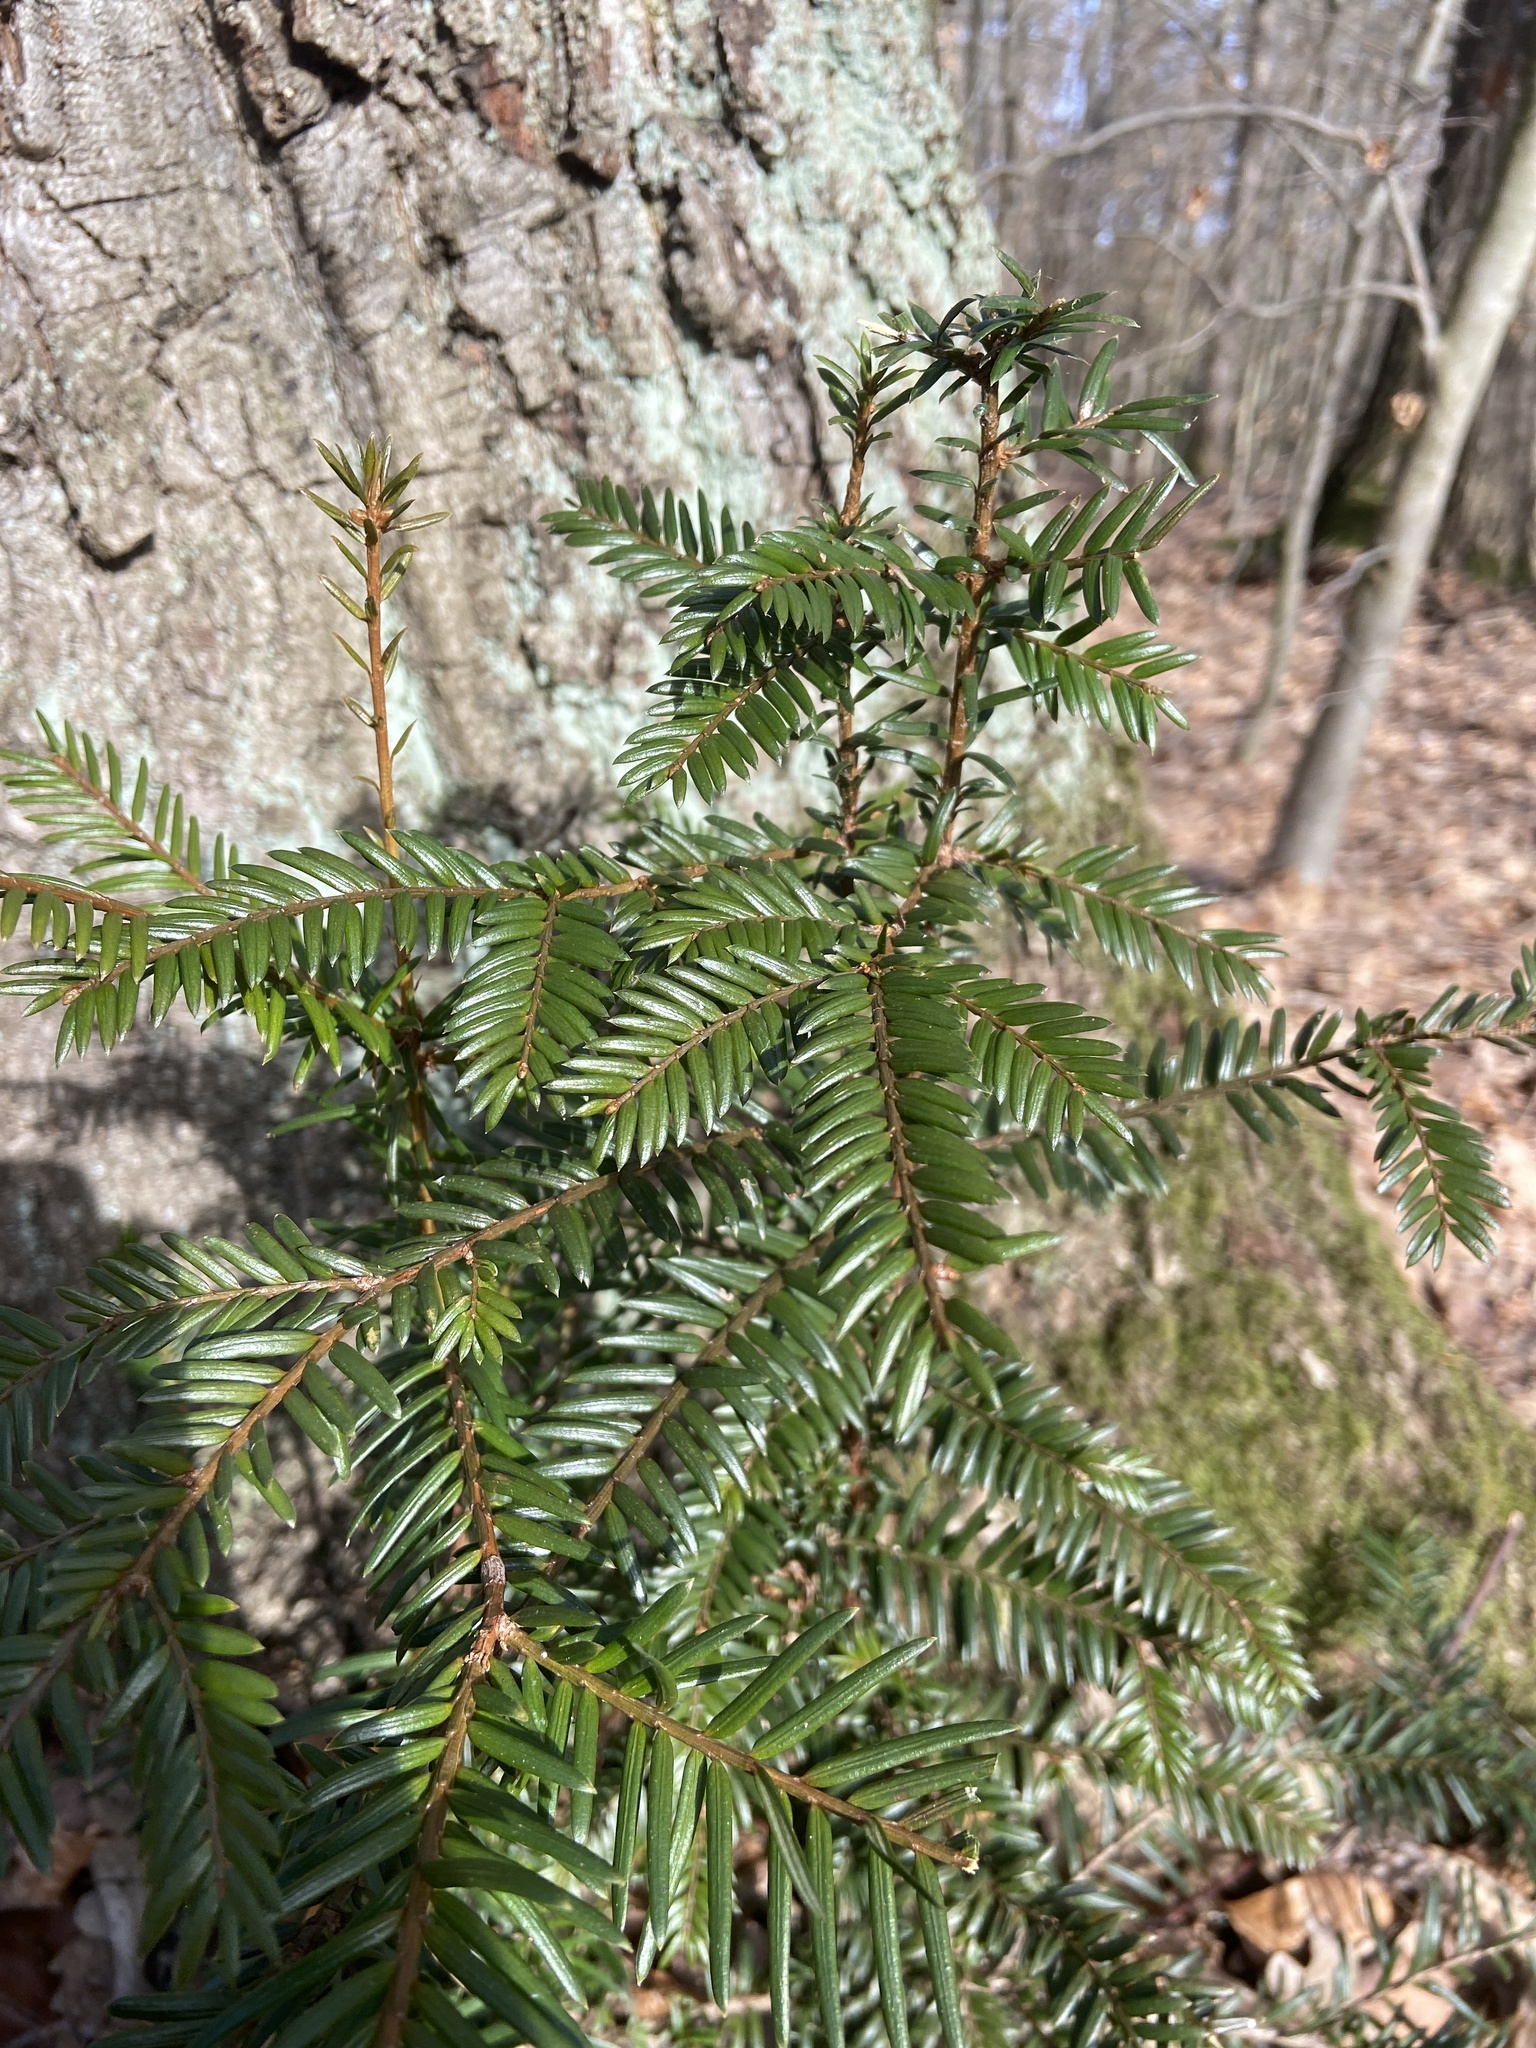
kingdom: Plantae
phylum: Tracheophyta
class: Pinopsida
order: Pinales
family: Taxaceae
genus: Taxus
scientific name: Taxus baccata
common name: Yew
